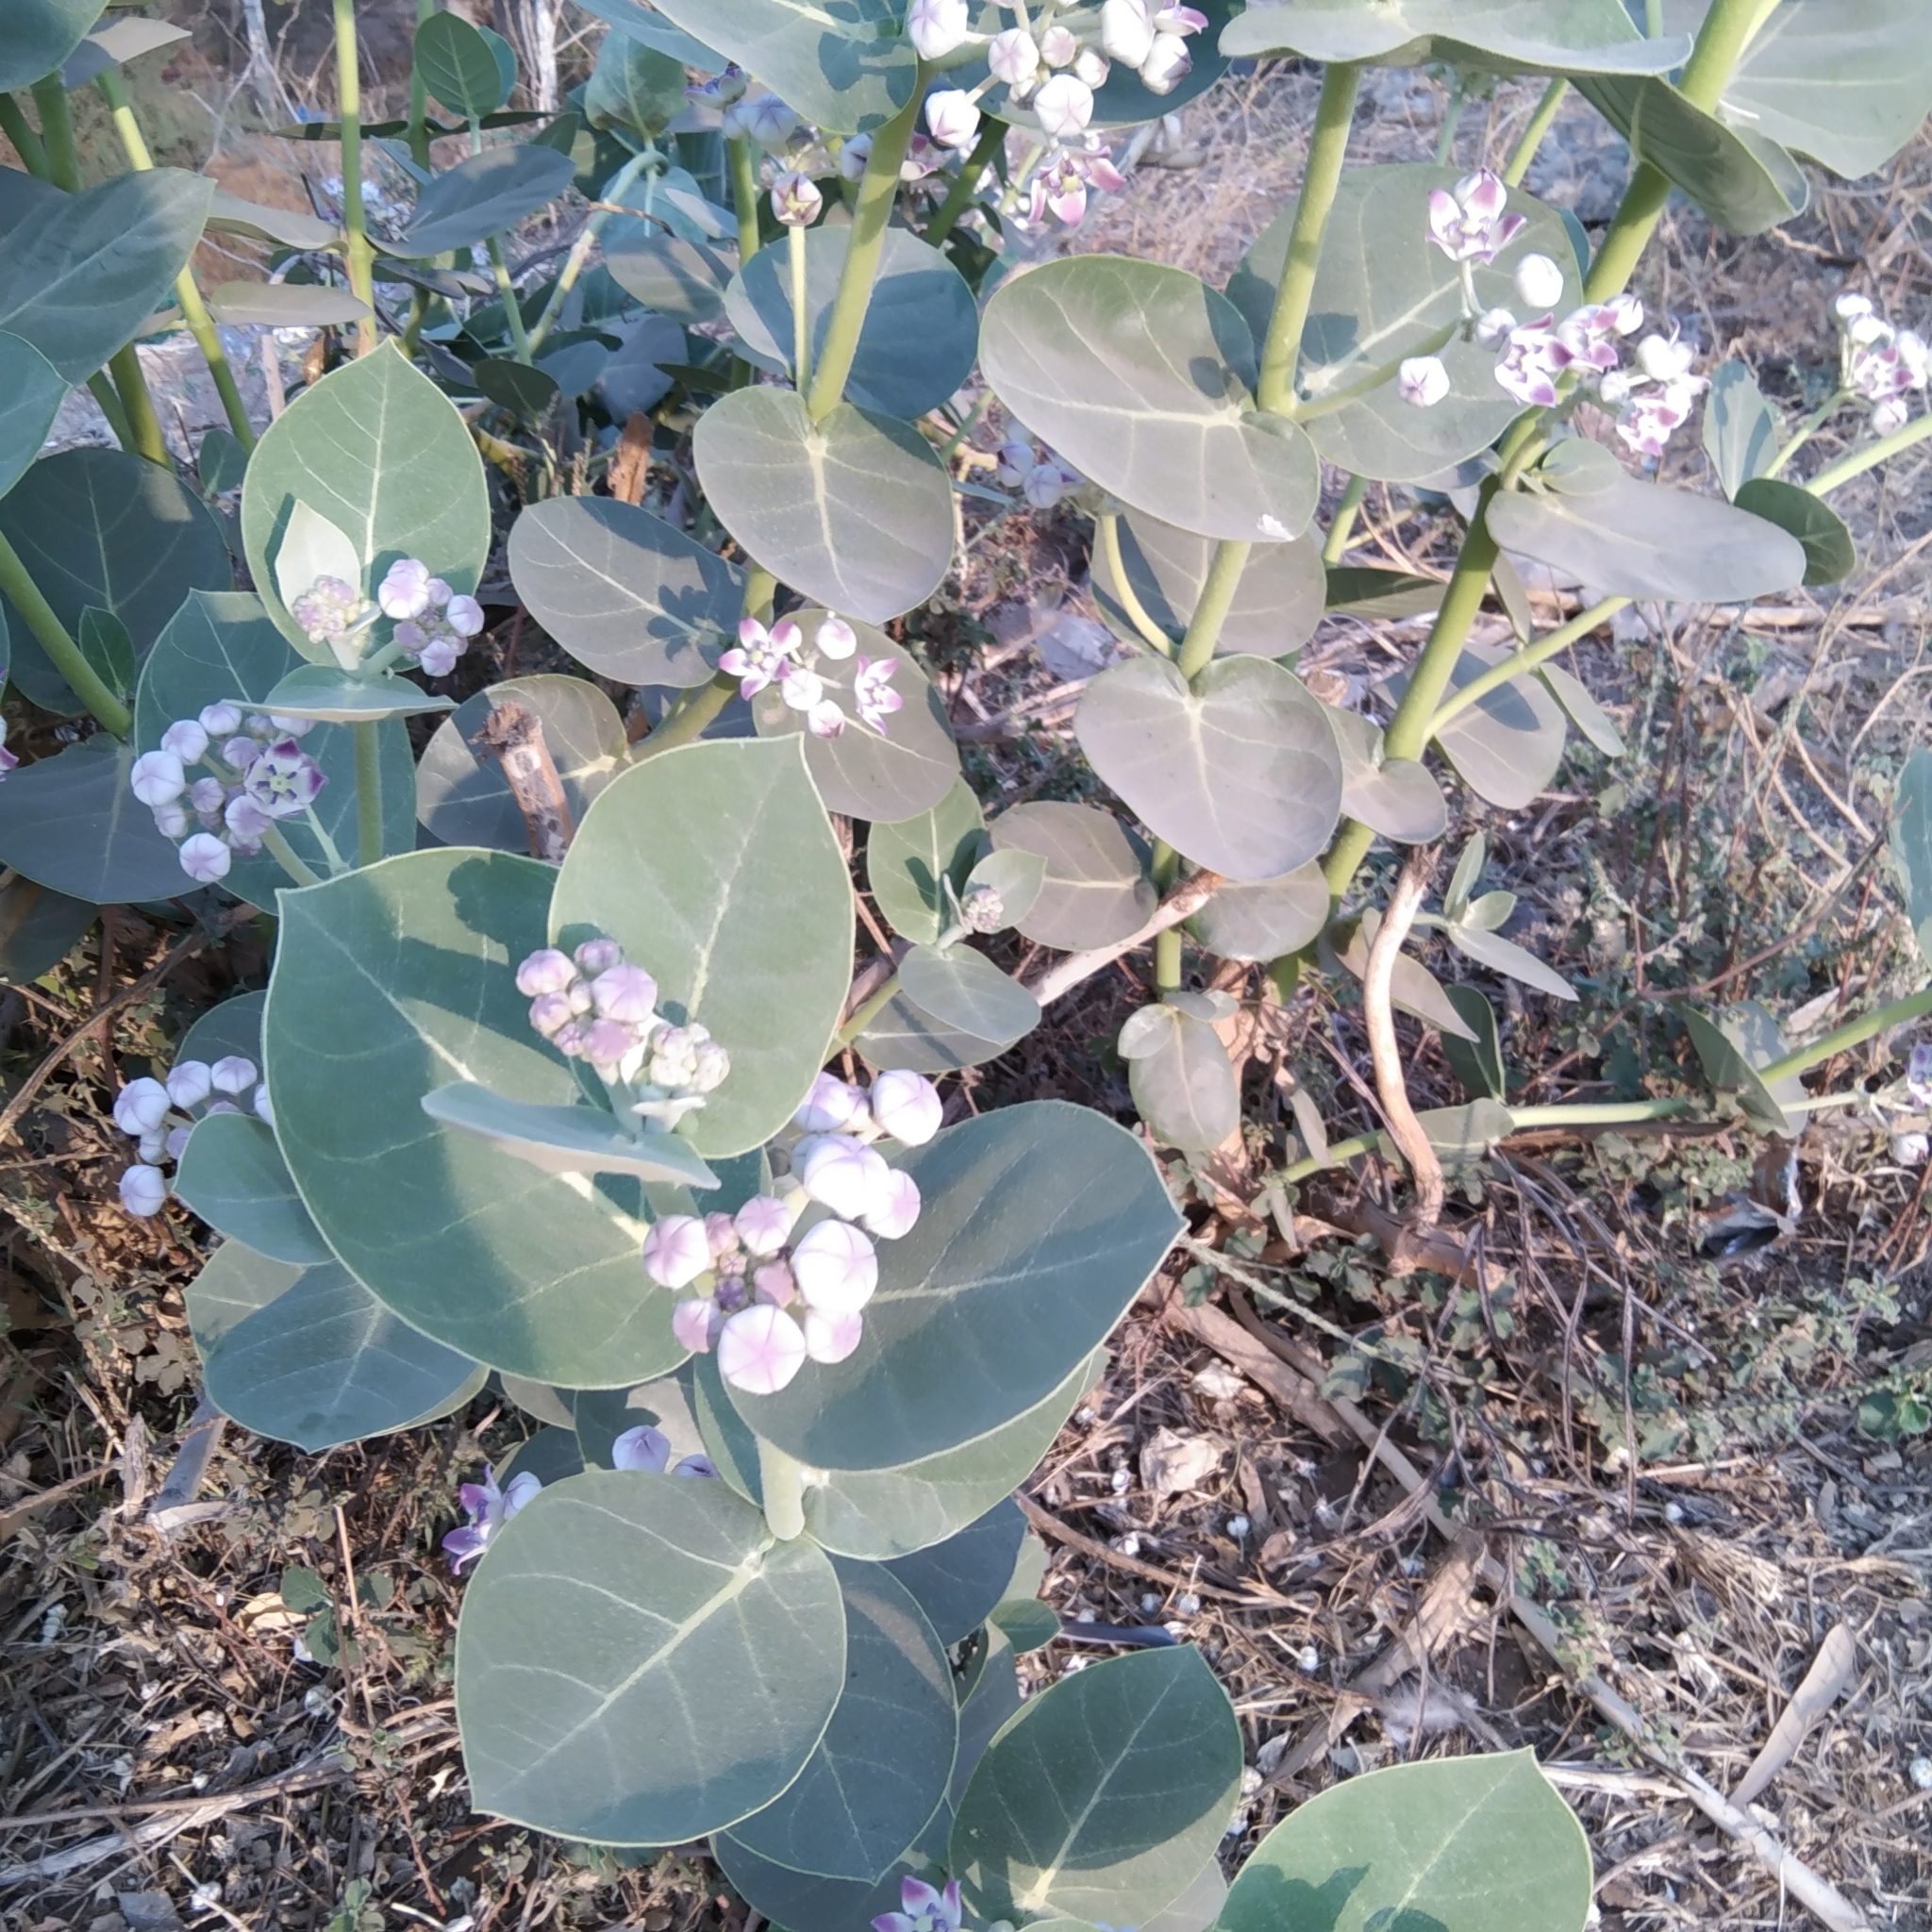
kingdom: Plantae
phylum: Tracheophyta
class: Magnoliopsida
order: Gentianales
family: Apocynaceae
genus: Calotropis
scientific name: Calotropis procera
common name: Roostertree
